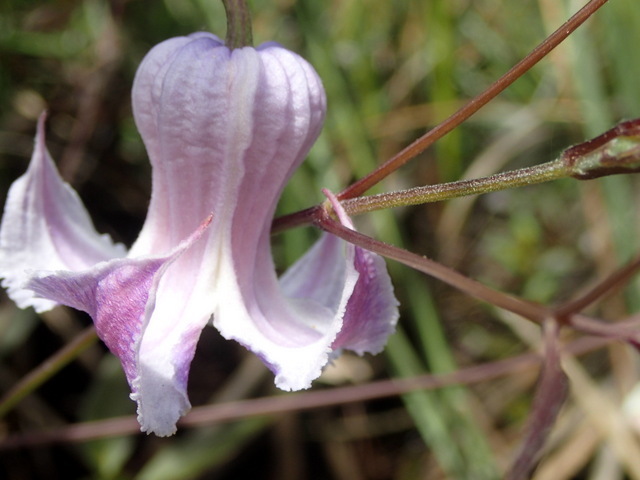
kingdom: Plantae
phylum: Tracheophyta
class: Magnoliopsida
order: Ranunculales
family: Ranunculaceae
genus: Clematis
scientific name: Clematis crispa
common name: Curly clematis
